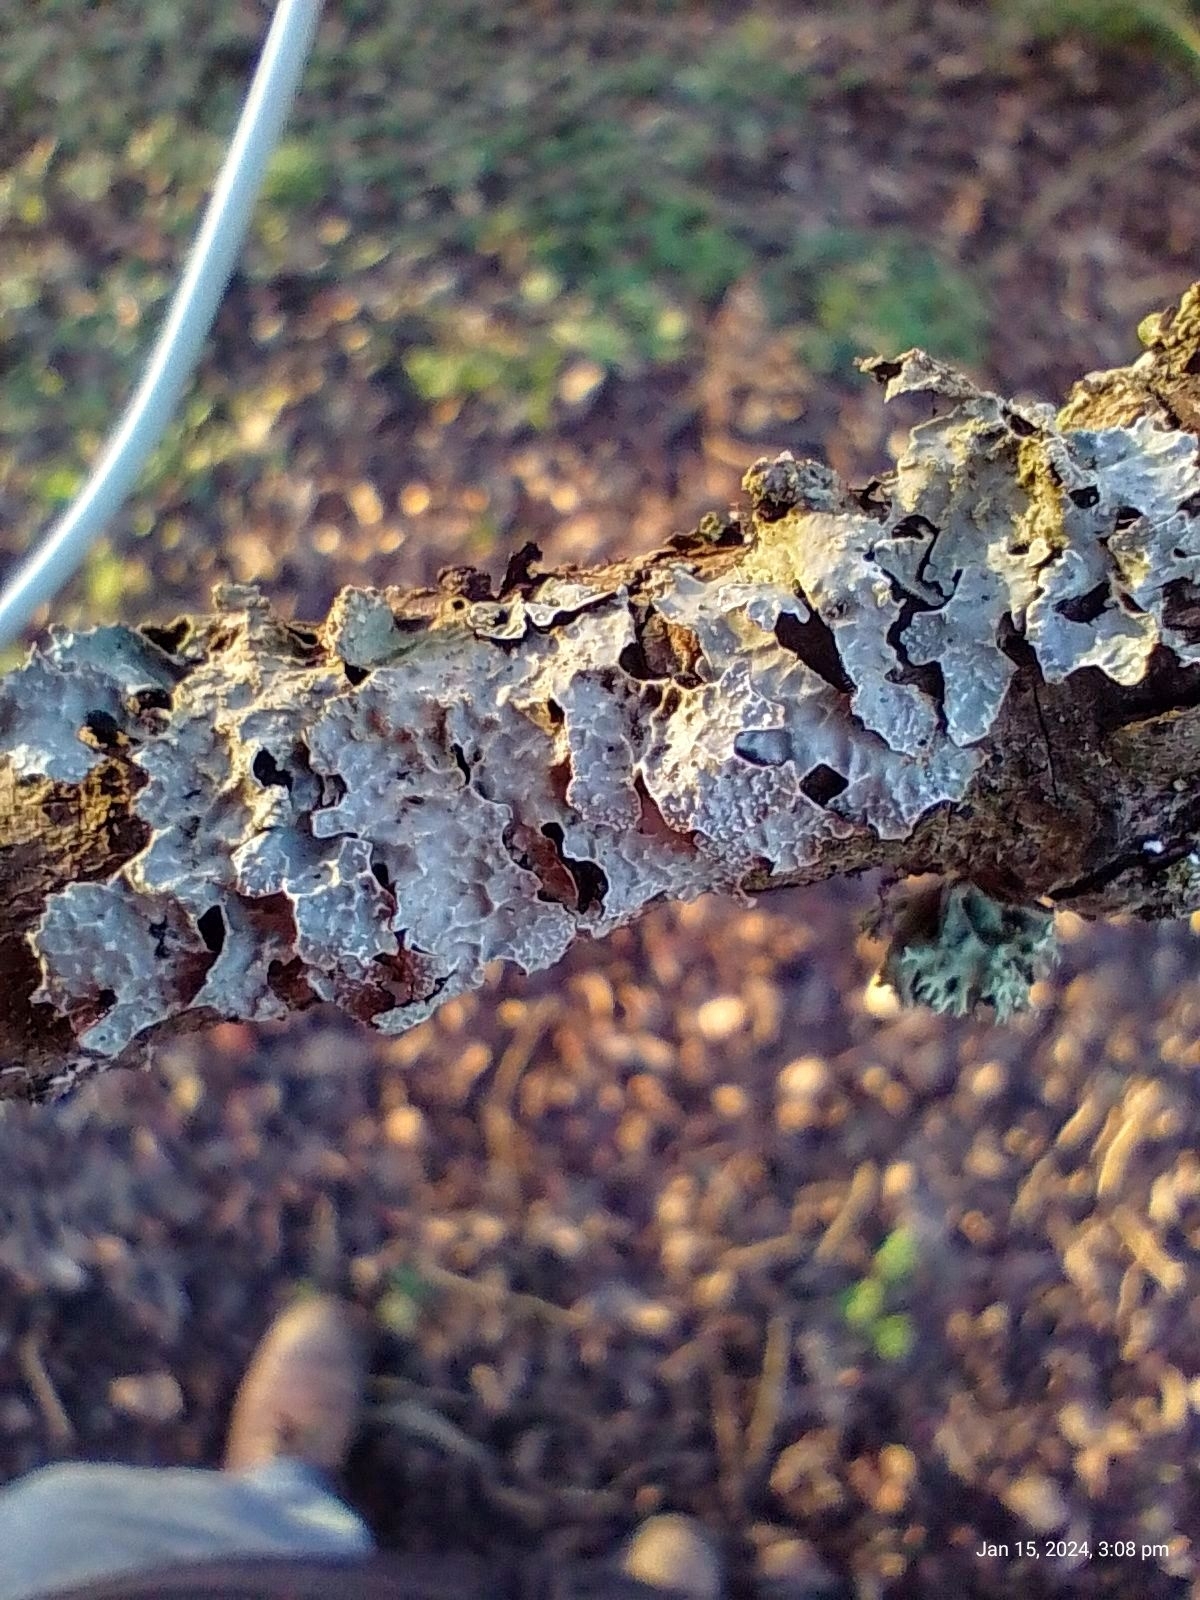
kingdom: Fungi
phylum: Ascomycota
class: Lecanoromycetes
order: Lecanorales
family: Parmeliaceae
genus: Parmelia
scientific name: Parmelia sulcata
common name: Netted shield lichen
